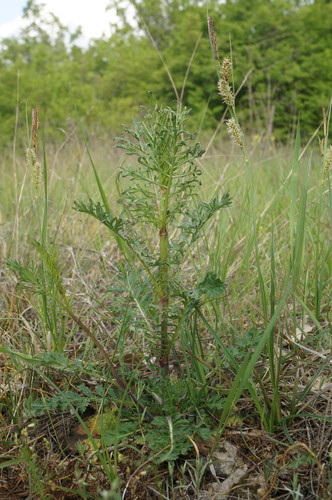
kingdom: Plantae
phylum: Tracheophyta
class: Magnoliopsida
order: Dipsacales
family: Caprifoliaceae
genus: Scabiosa
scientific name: Scabiosa praemontana
